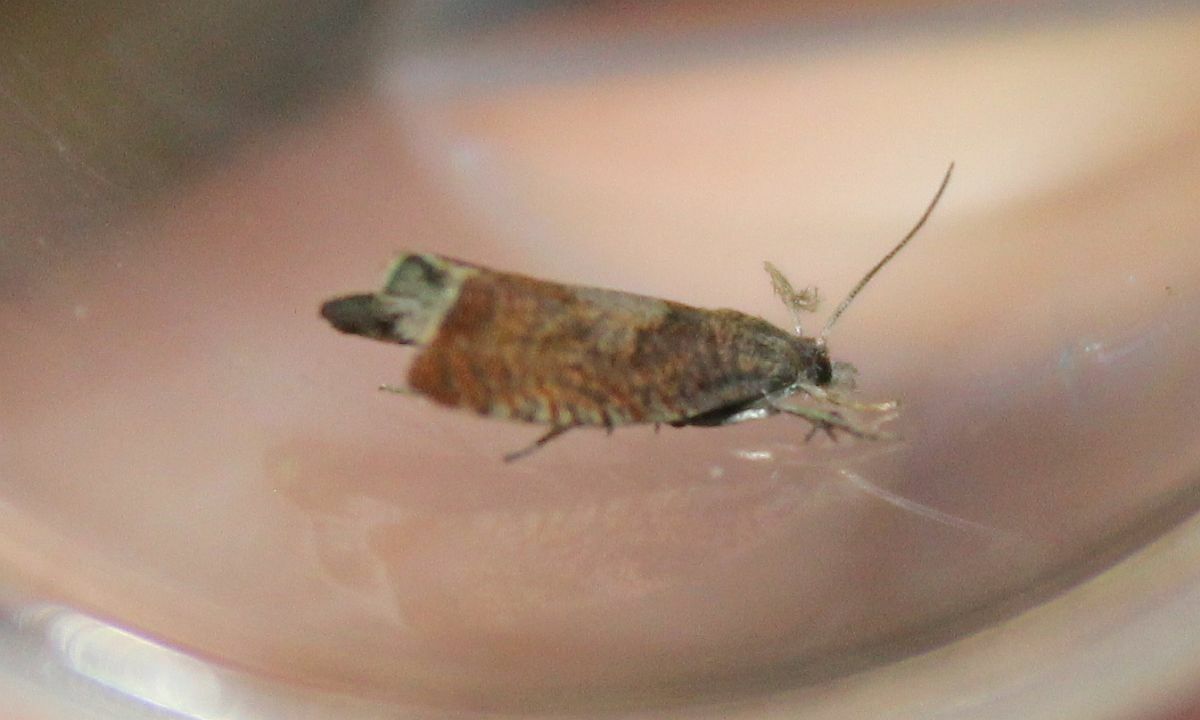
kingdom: Animalia
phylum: Arthropoda
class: Insecta
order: Lepidoptera
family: Tortricidae
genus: Dichrorampha
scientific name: Dichrorampha acuminatana
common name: Sharp-winged drill
